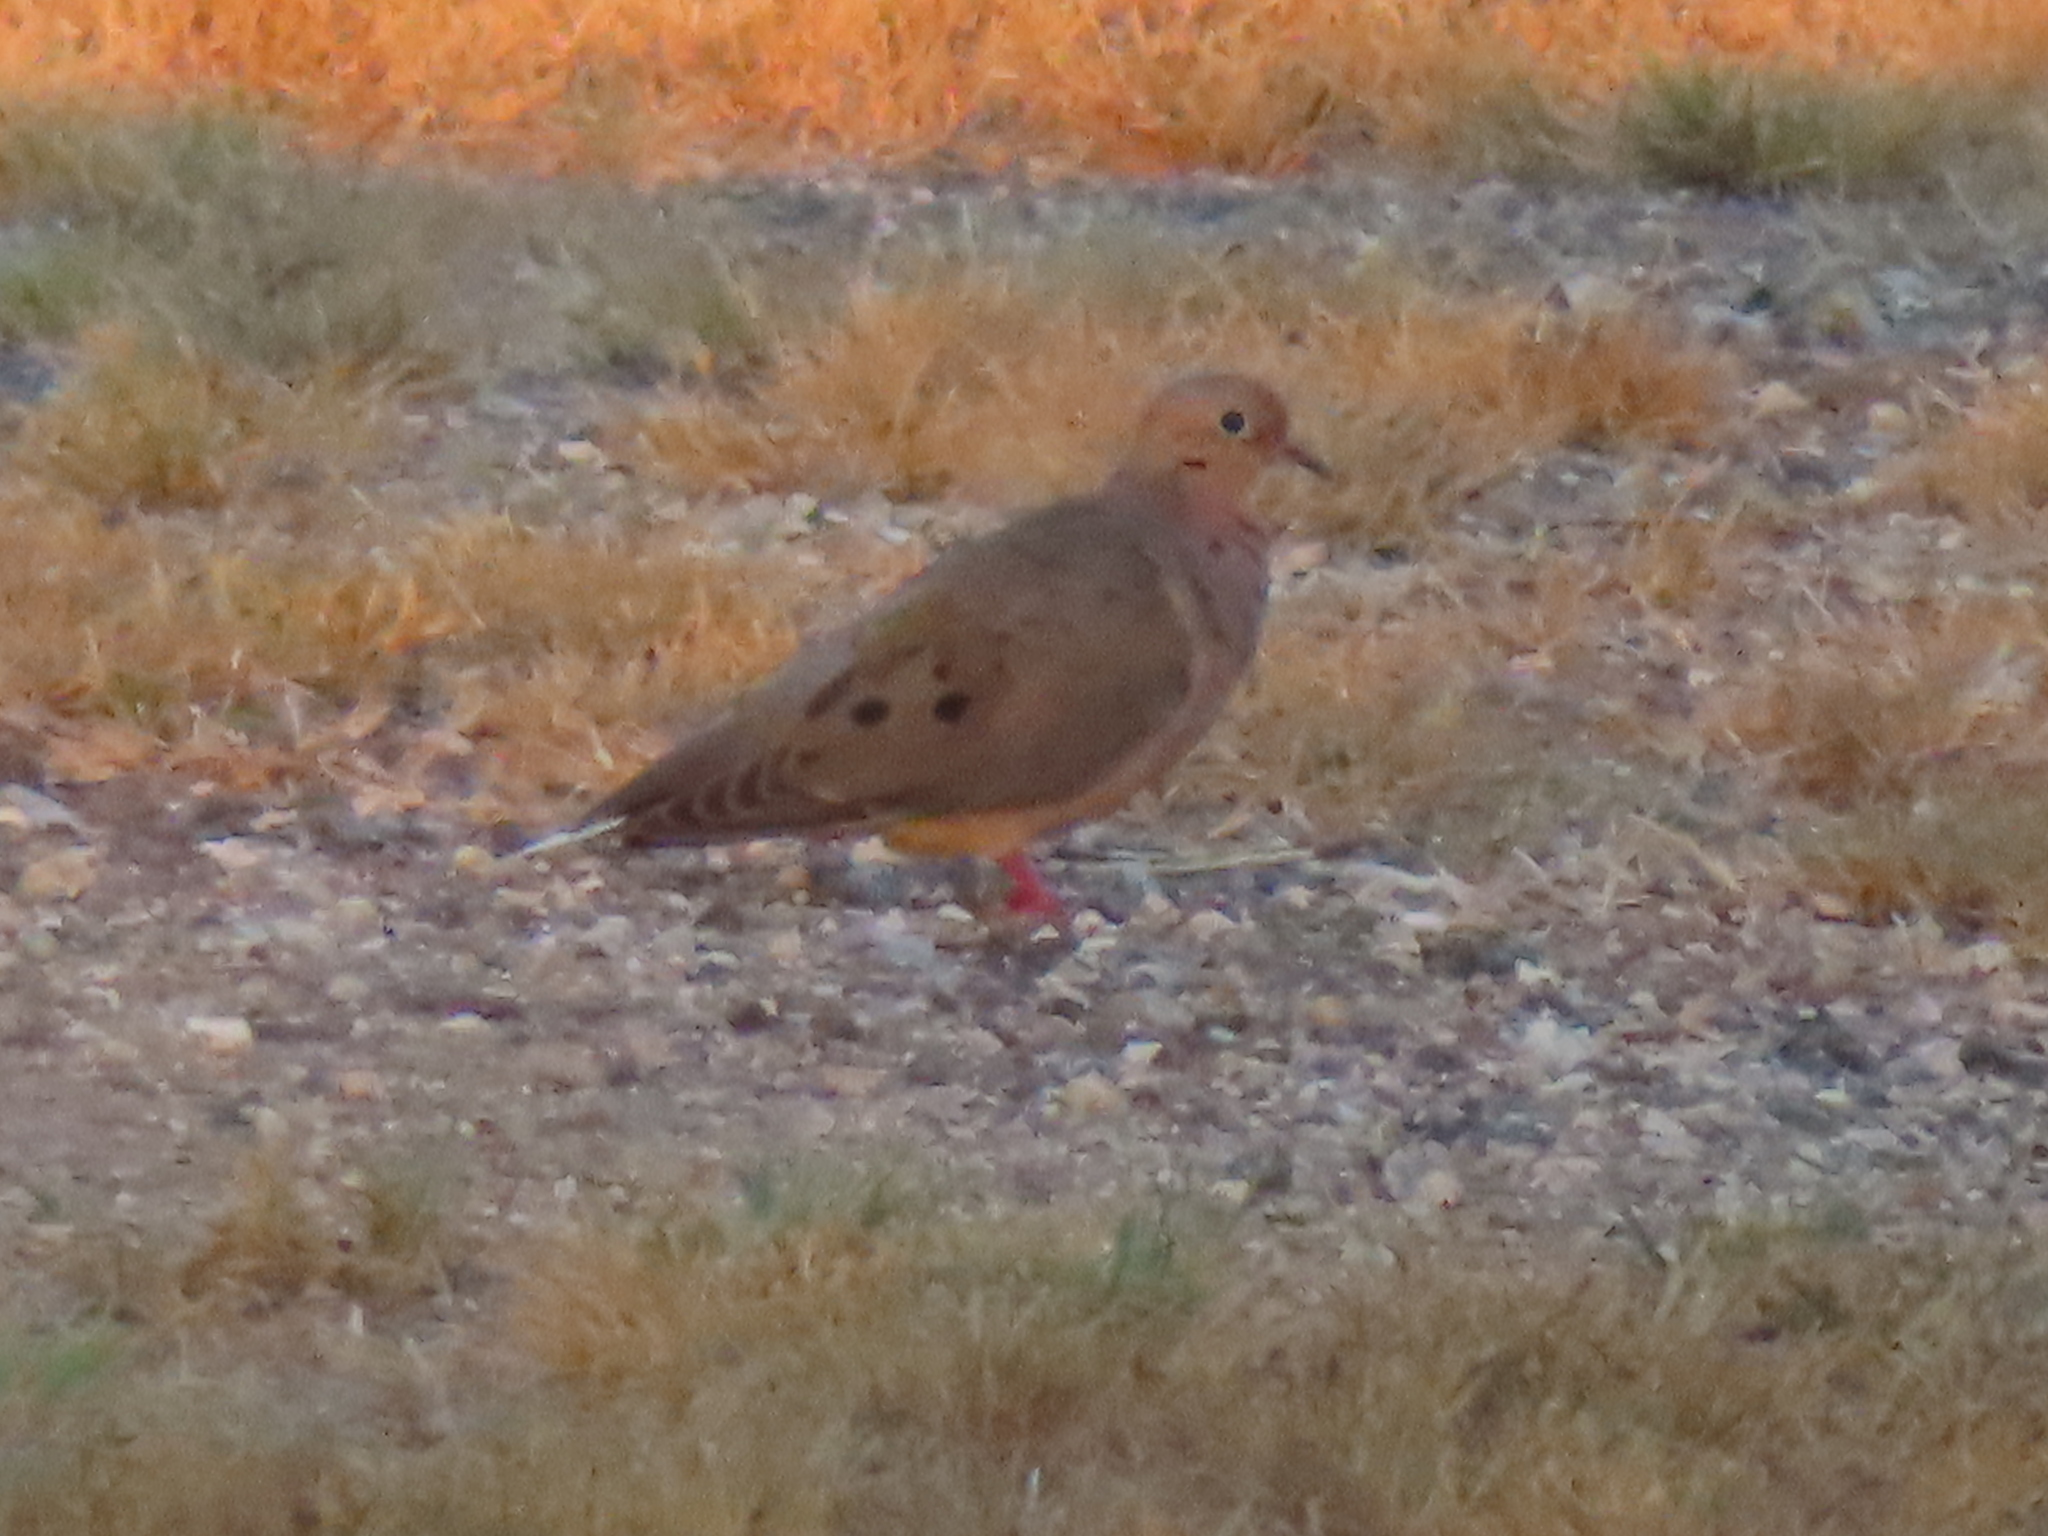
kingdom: Animalia
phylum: Chordata
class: Aves
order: Columbiformes
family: Columbidae
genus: Zenaida
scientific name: Zenaida macroura
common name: Mourning dove
